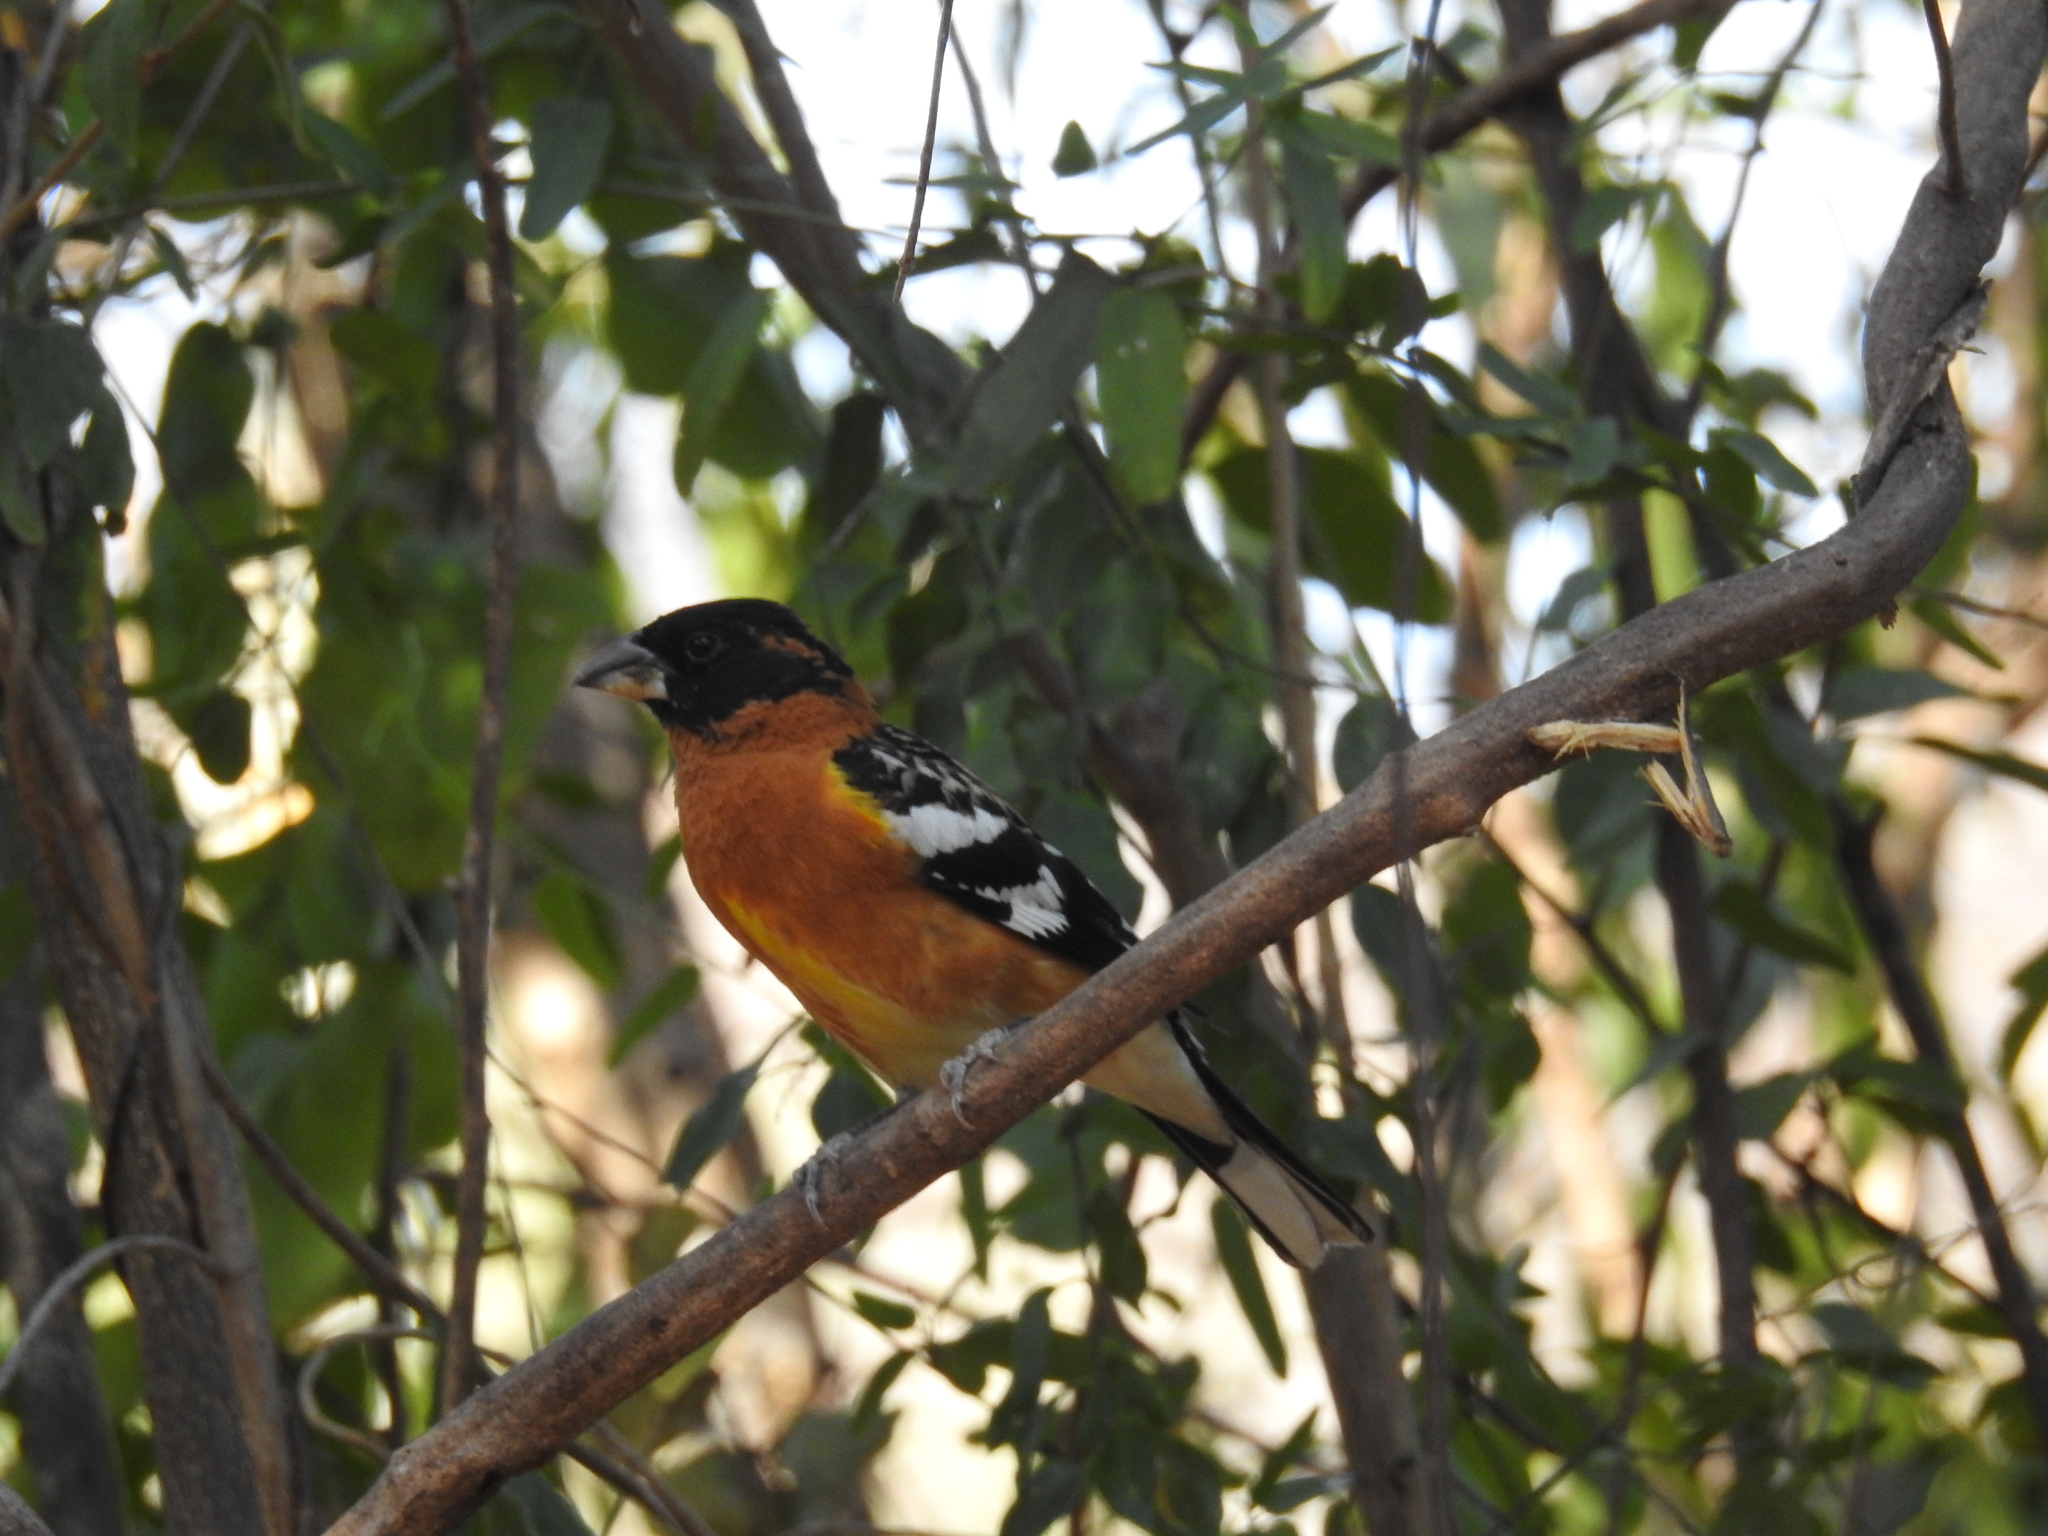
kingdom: Animalia
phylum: Chordata
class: Aves
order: Passeriformes
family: Cardinalidae
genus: Pheucticus
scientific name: Pheucticus melanocephalus
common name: Black-headed grosbeak
